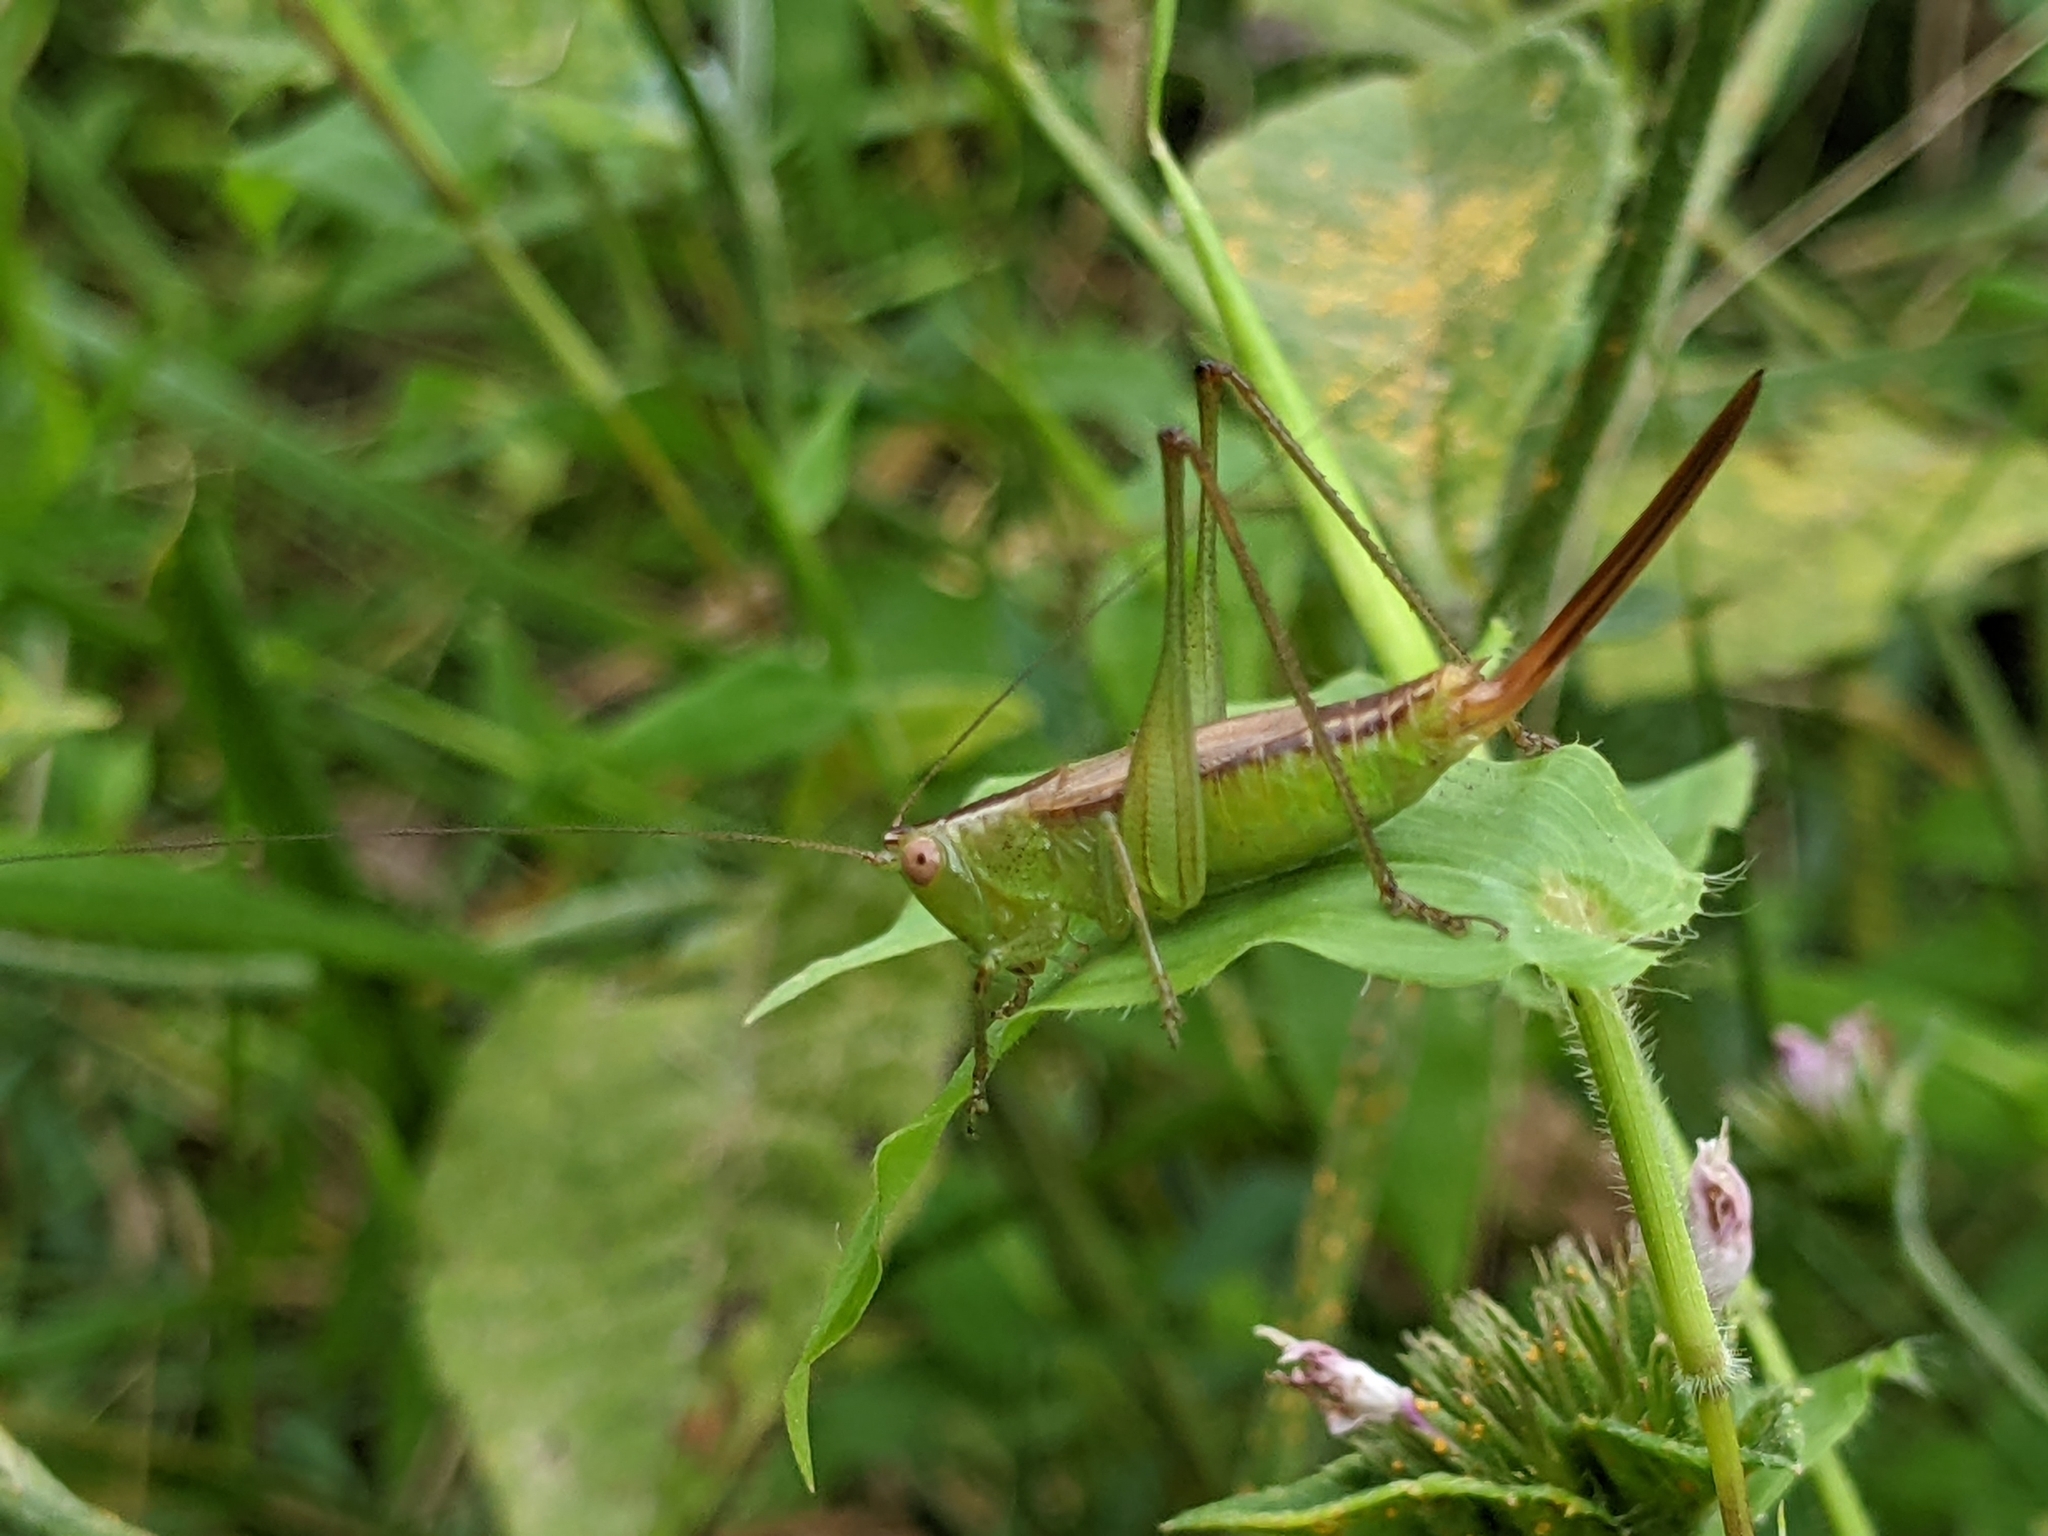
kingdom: Animalia
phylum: Arthropoda
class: Insecta
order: Orthoptera
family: Tettigoniidae
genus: Conocephalus
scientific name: Conocephalus brevipennis
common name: Short-winged meadow katydid
